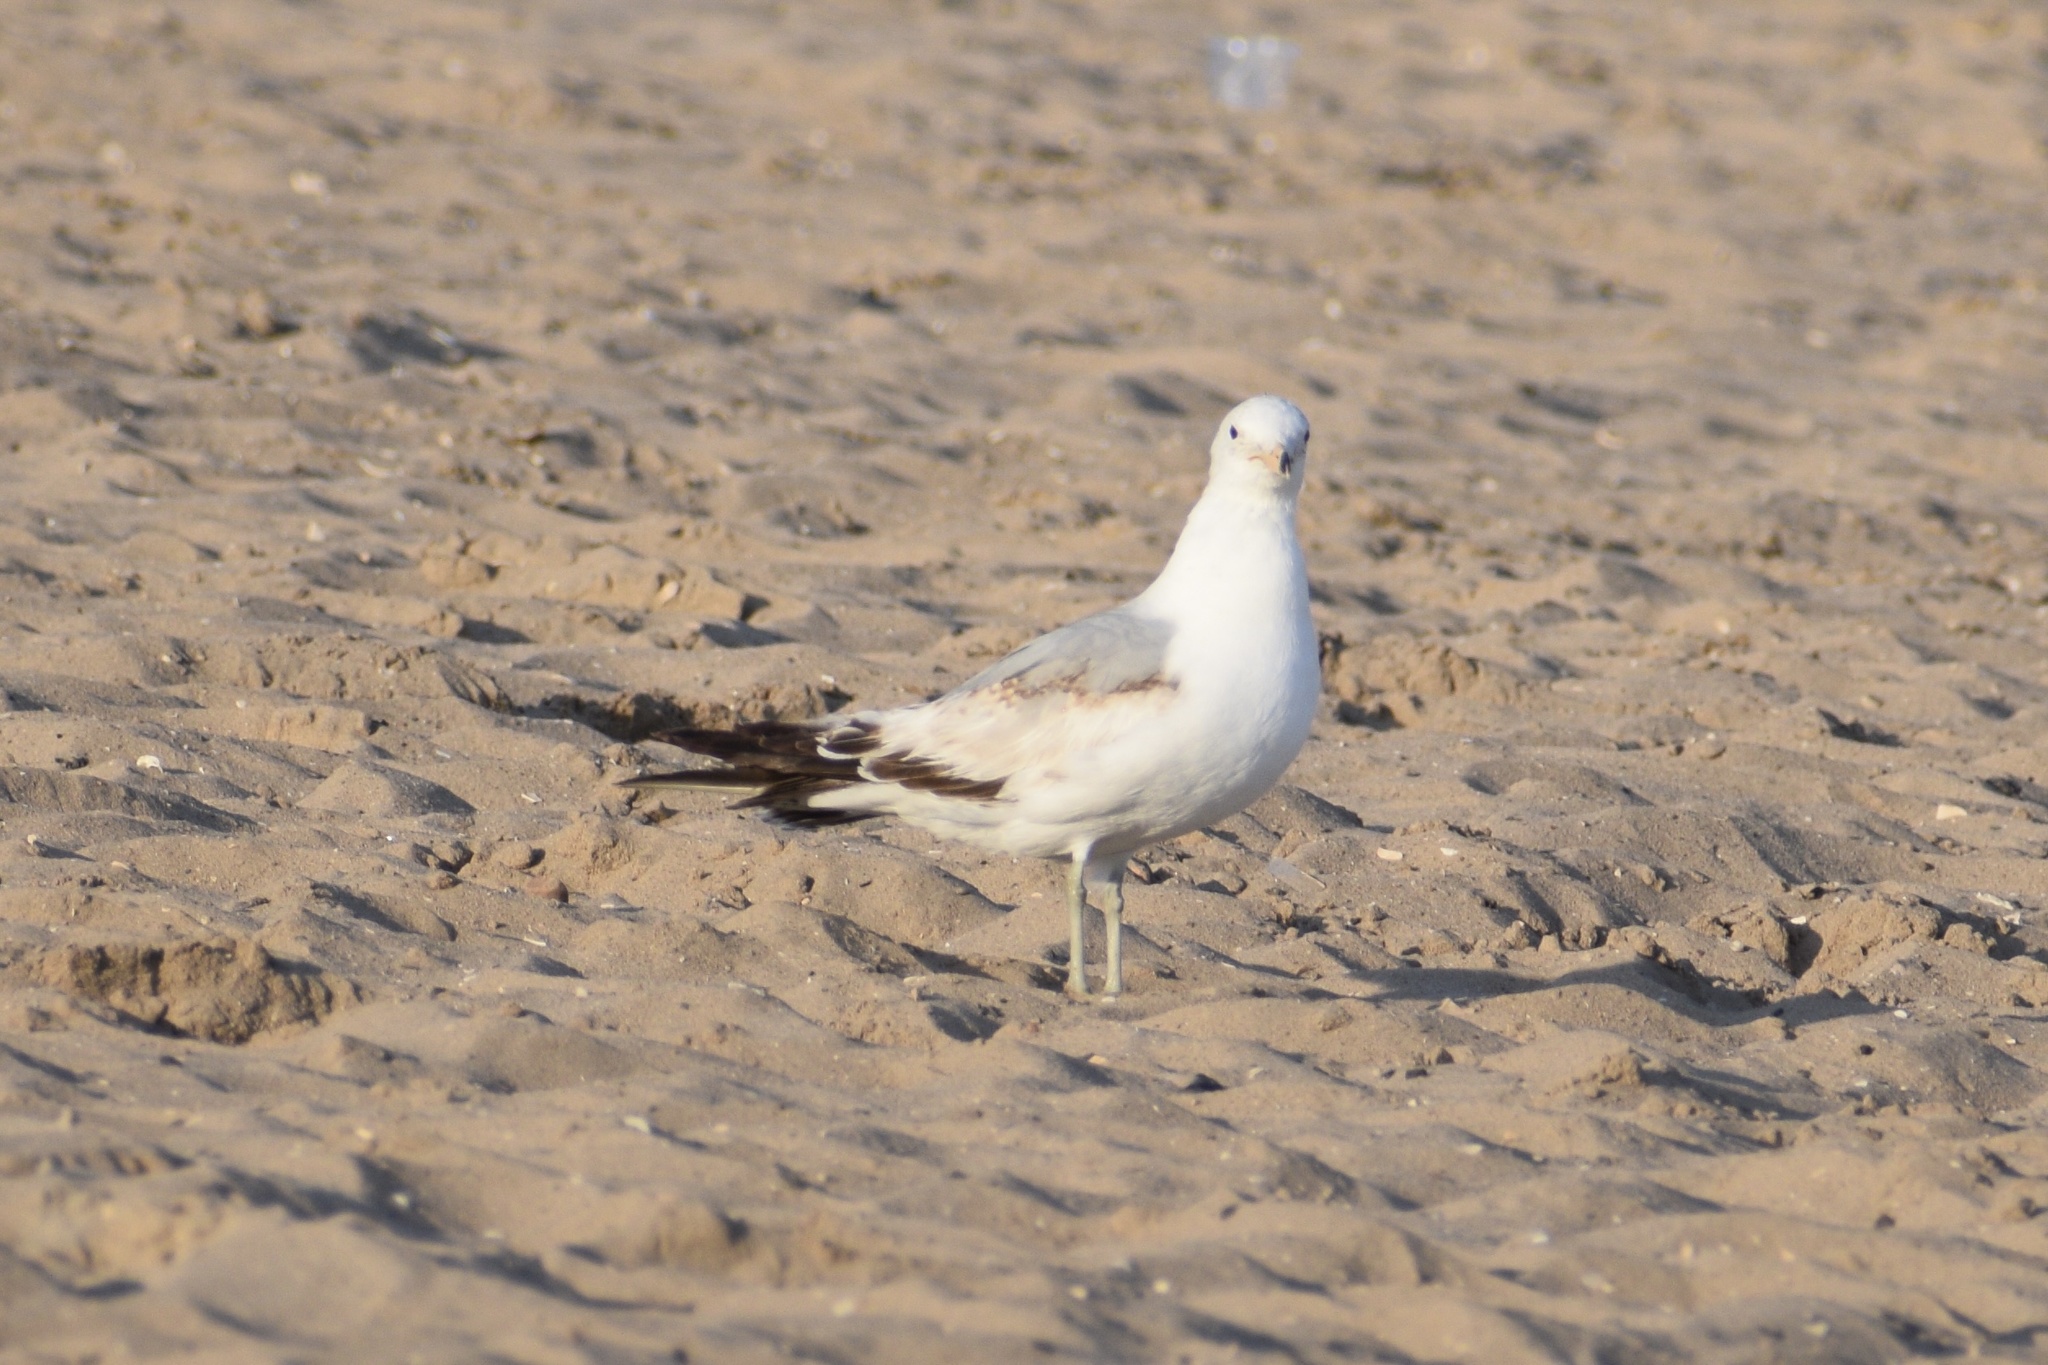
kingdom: Animalia
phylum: Chordata
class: Aves
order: Charadriiformes
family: Laridae
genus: Larus
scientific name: Larus delawarensis
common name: Ring-billed gull
